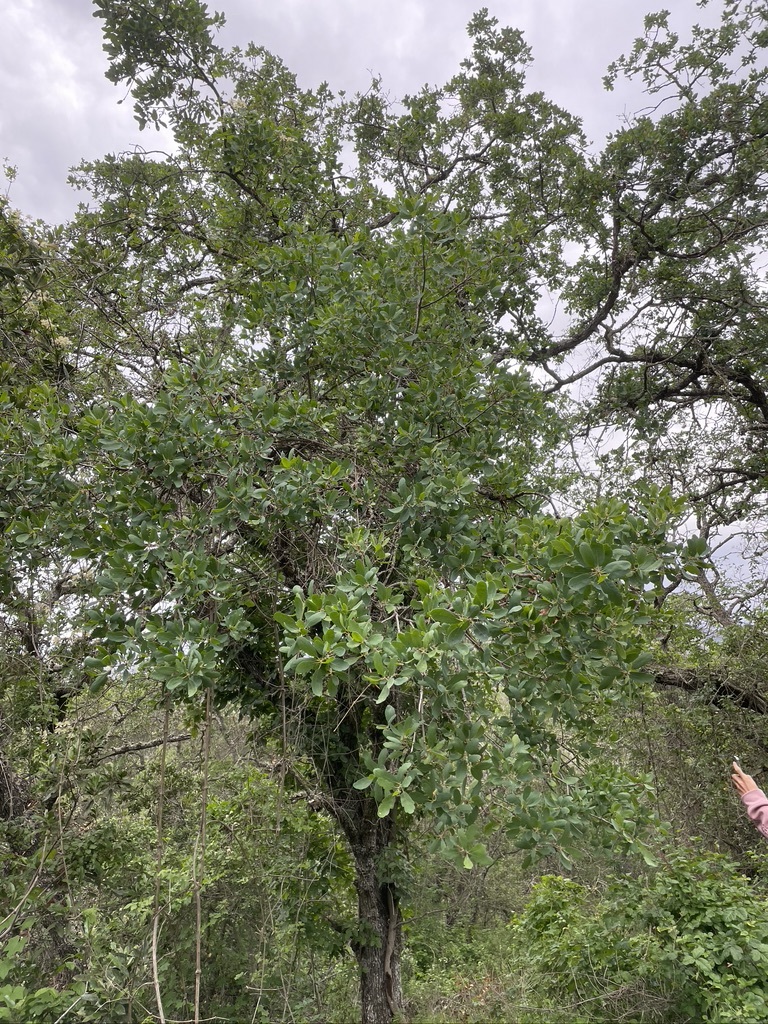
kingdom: Plantae
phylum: Tracheophyta
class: Magnoliopsida
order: Fagales
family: Fagaceae
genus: Quercus
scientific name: Quercus douglasii
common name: Blue oak
